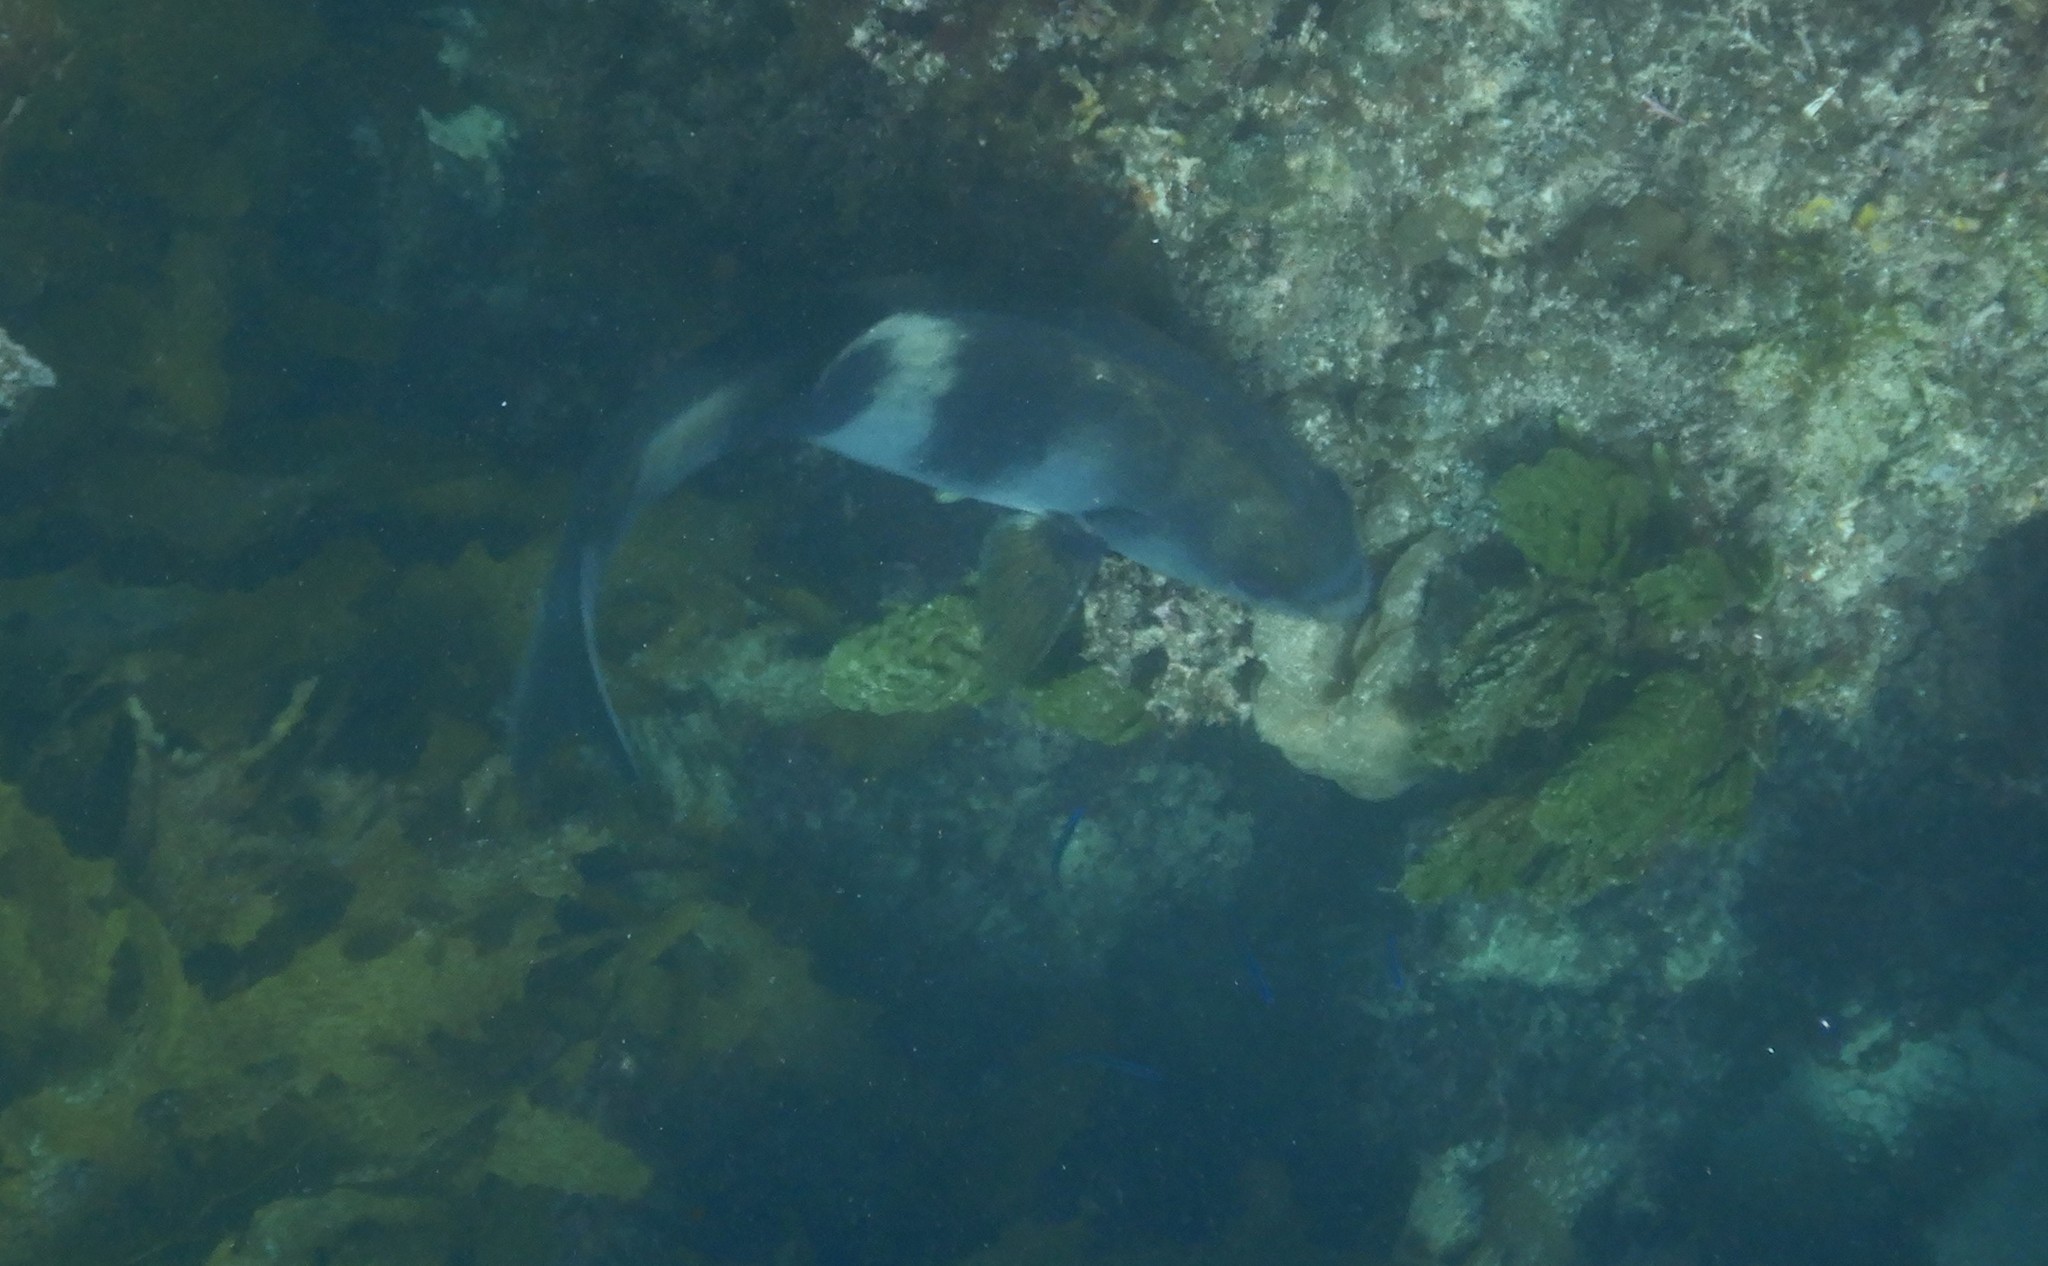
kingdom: Animalia
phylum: Chordata
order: Perciformes
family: Kyphosidae
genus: Scorpis
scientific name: Scorpis georgiana
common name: Banded sweep
